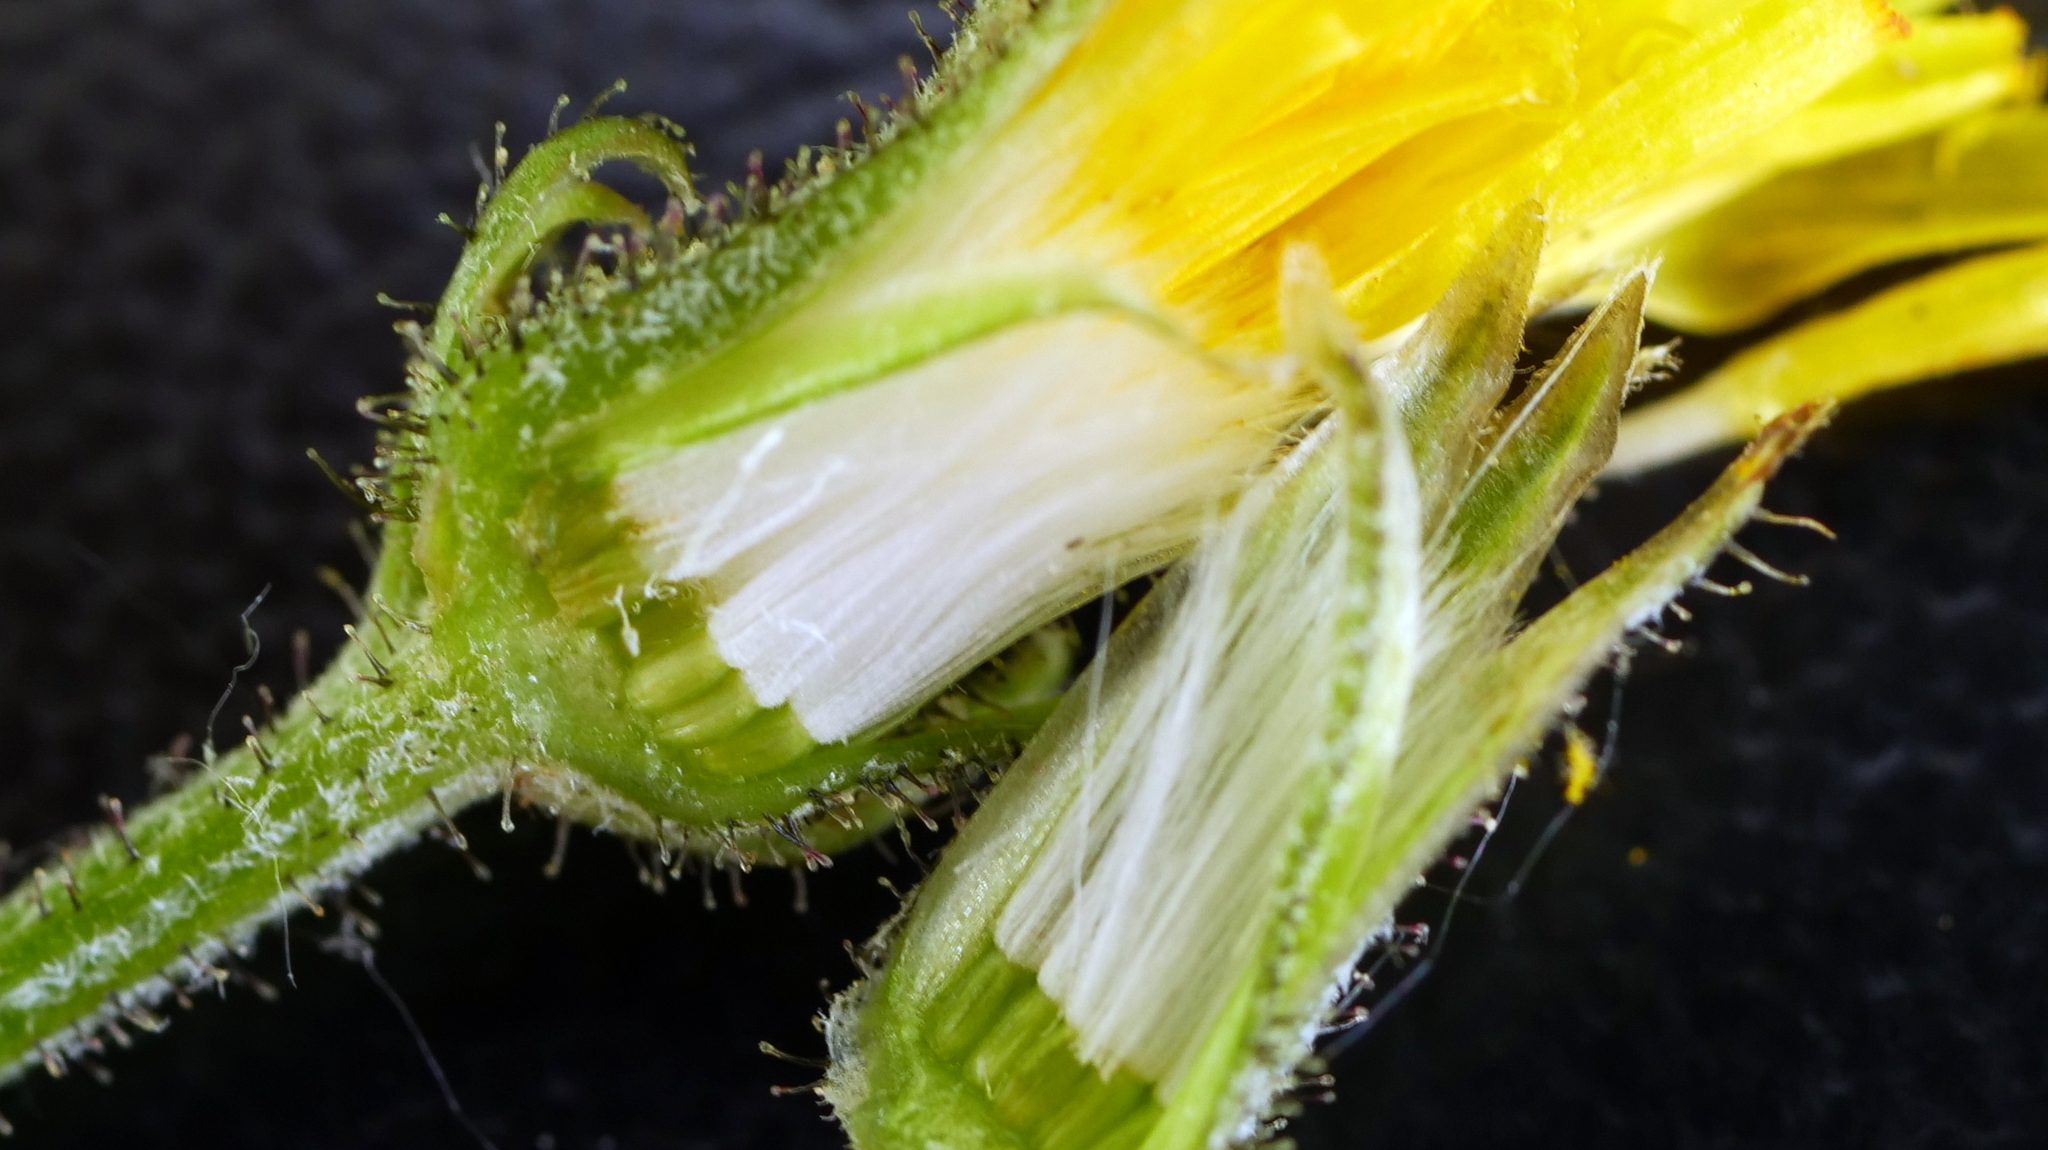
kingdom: Plantae
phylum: Tracheophyta
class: Magnoliopsida
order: Asterales
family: Asteraceae
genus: Crepis
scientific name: Crepis capillaris
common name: Smooth hawksbeard
